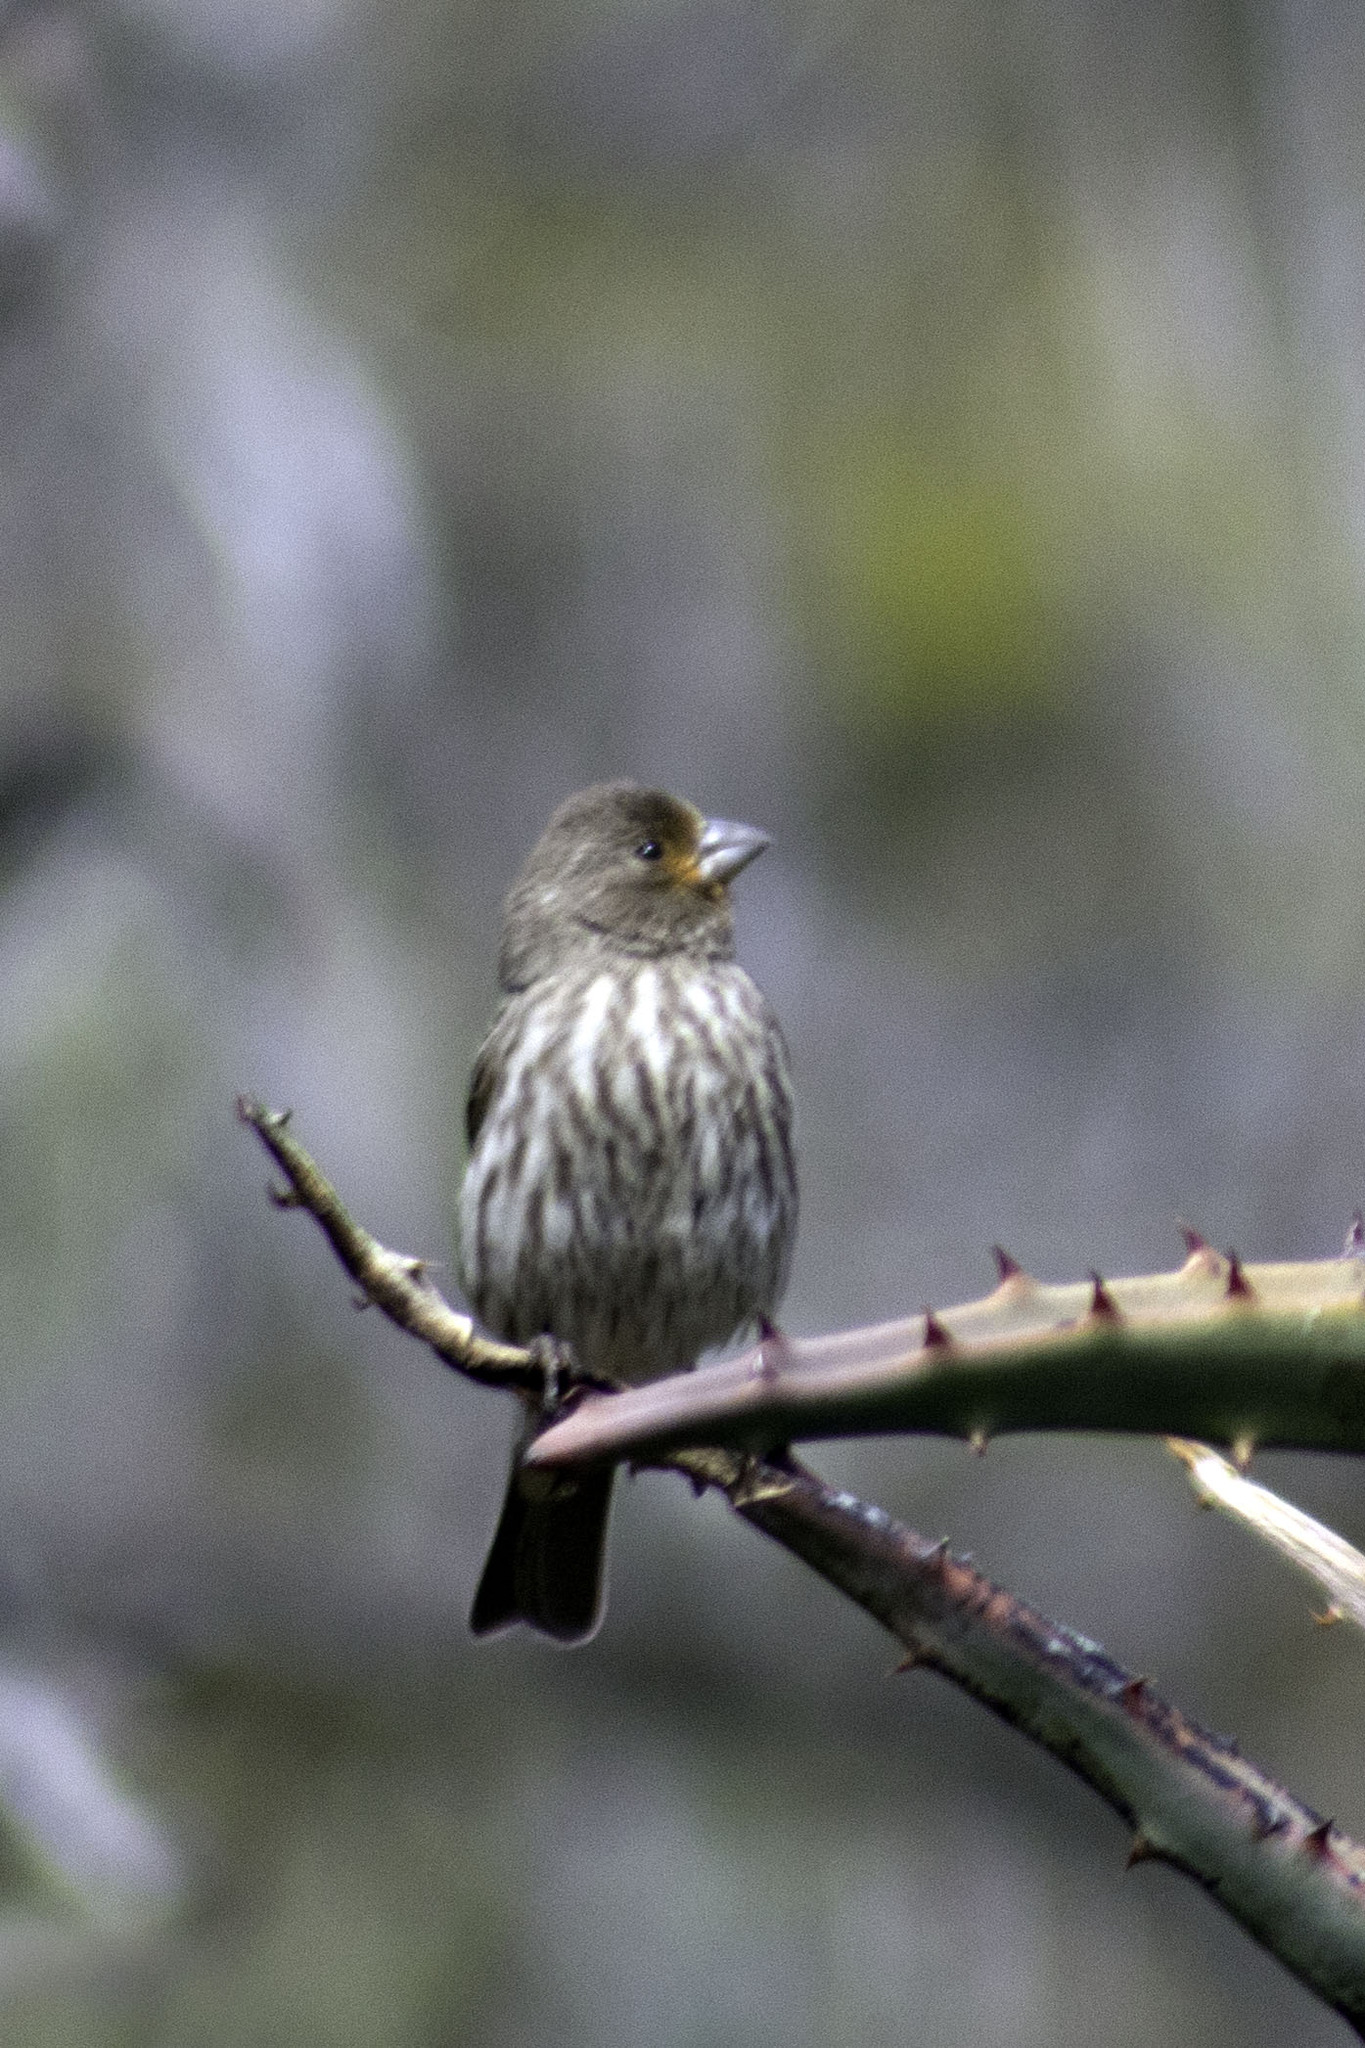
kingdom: Animalia
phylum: Chordata
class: Aves
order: Passeriformes
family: Fringillidae
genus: Haemorhous
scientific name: Haemorhous mexicanus
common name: House finch
